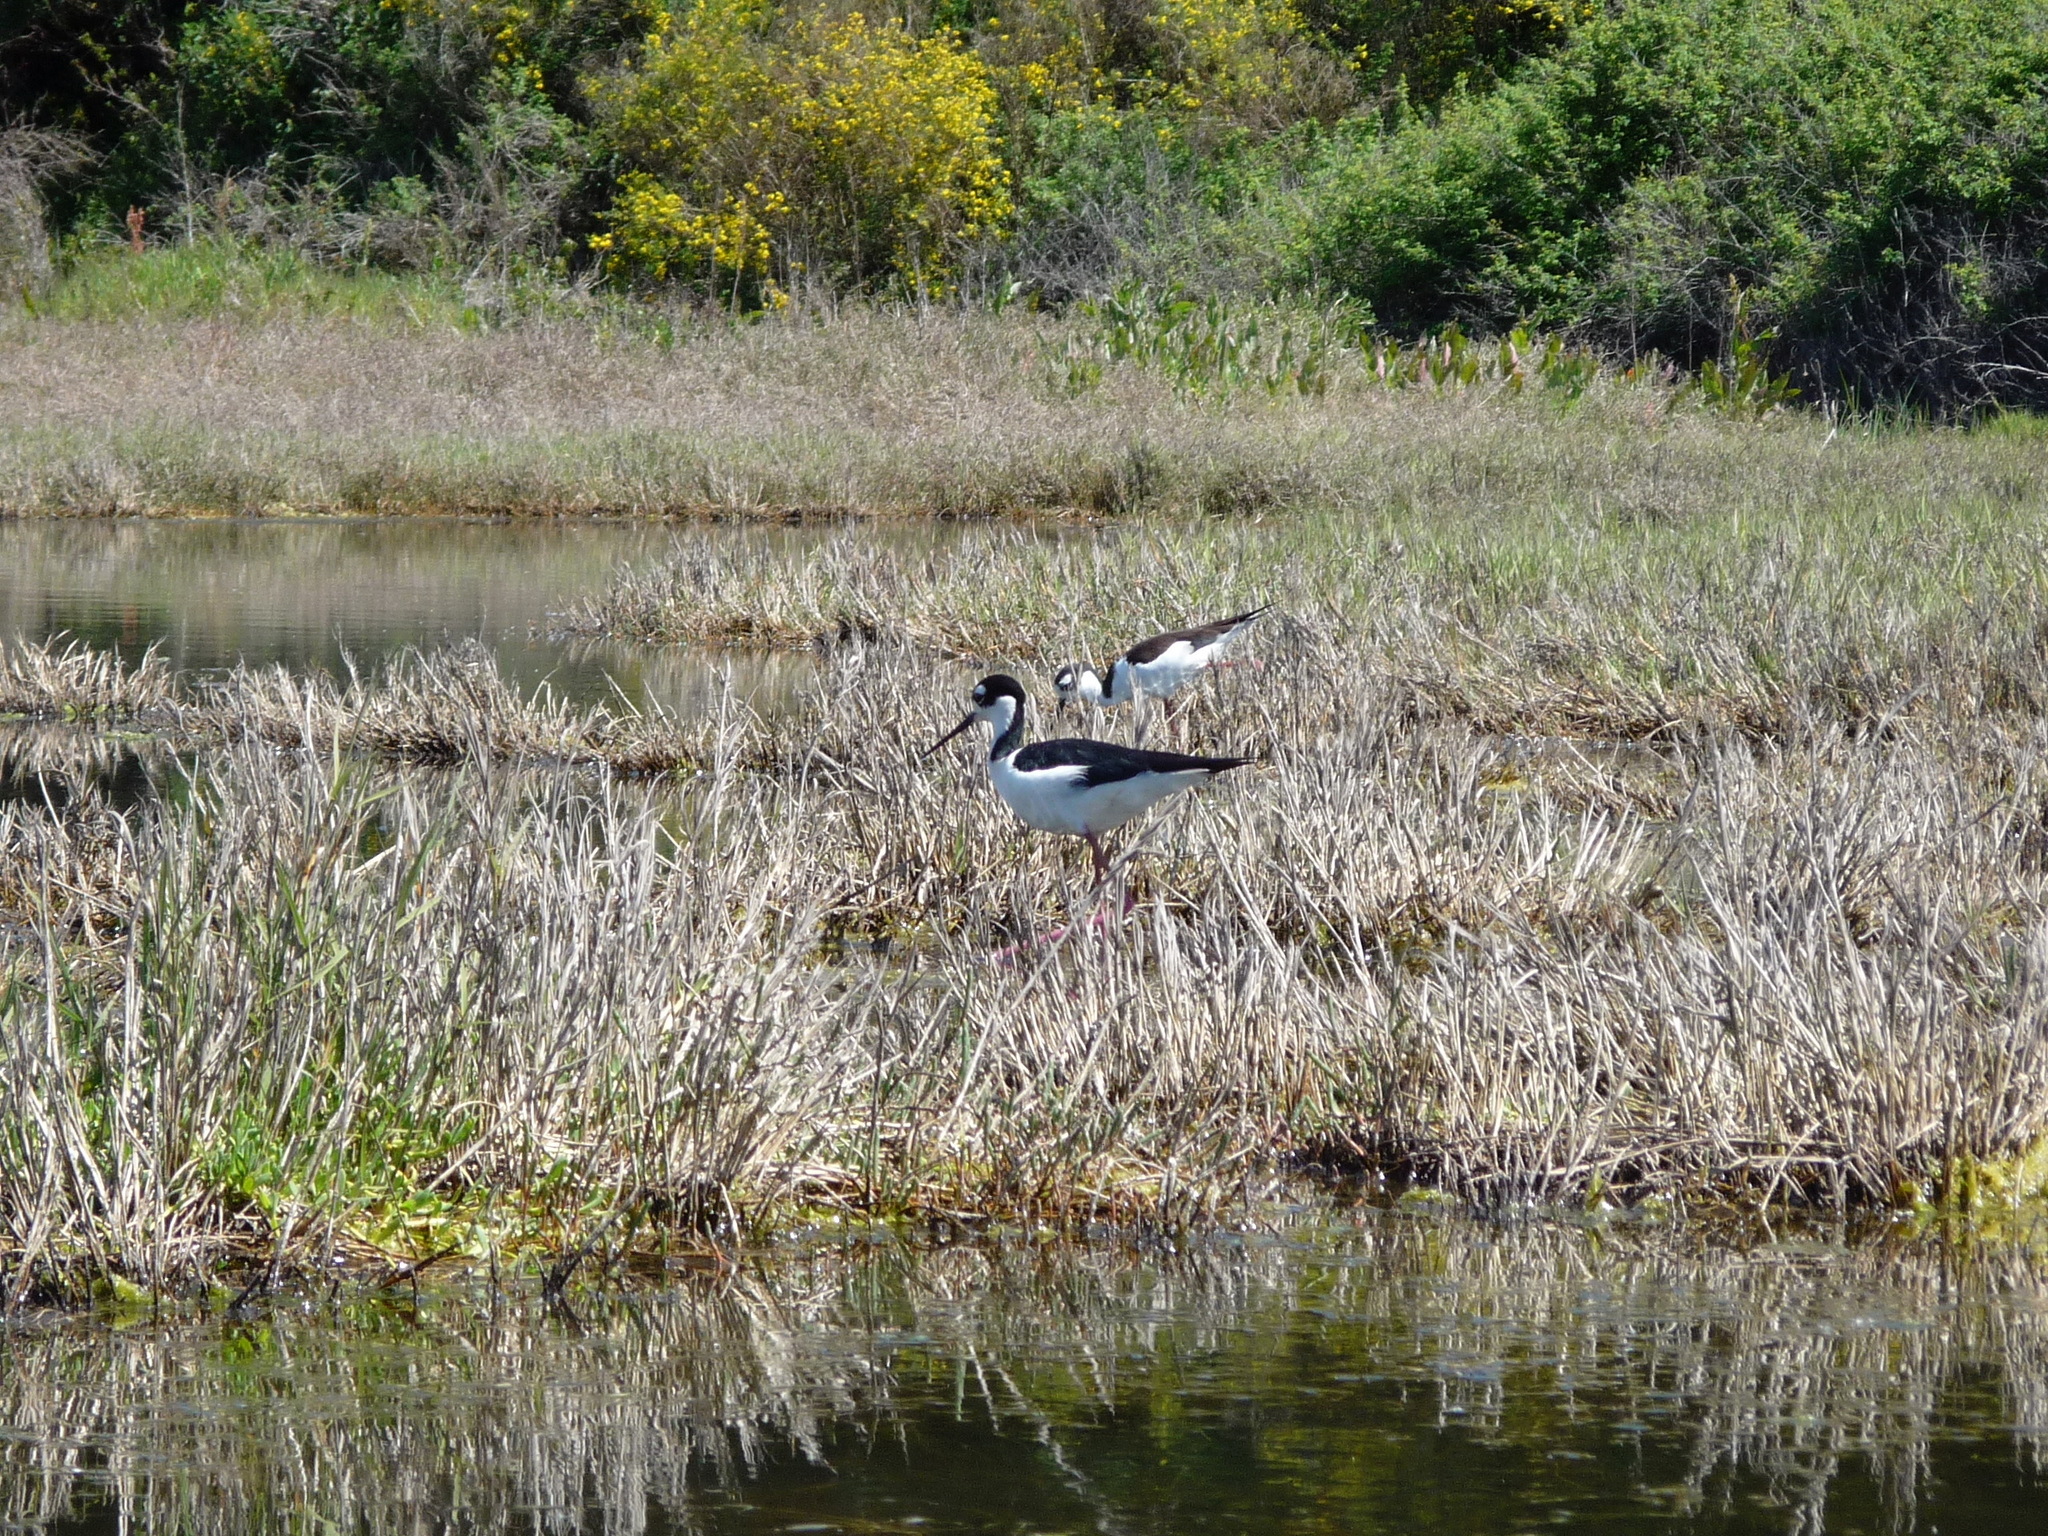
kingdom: Animalia
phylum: Chordata
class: Aves
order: Charadriiformes
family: Recurvirostridae
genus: Himantopus
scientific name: Himantopus mexicanus
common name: Black-necked stilt
